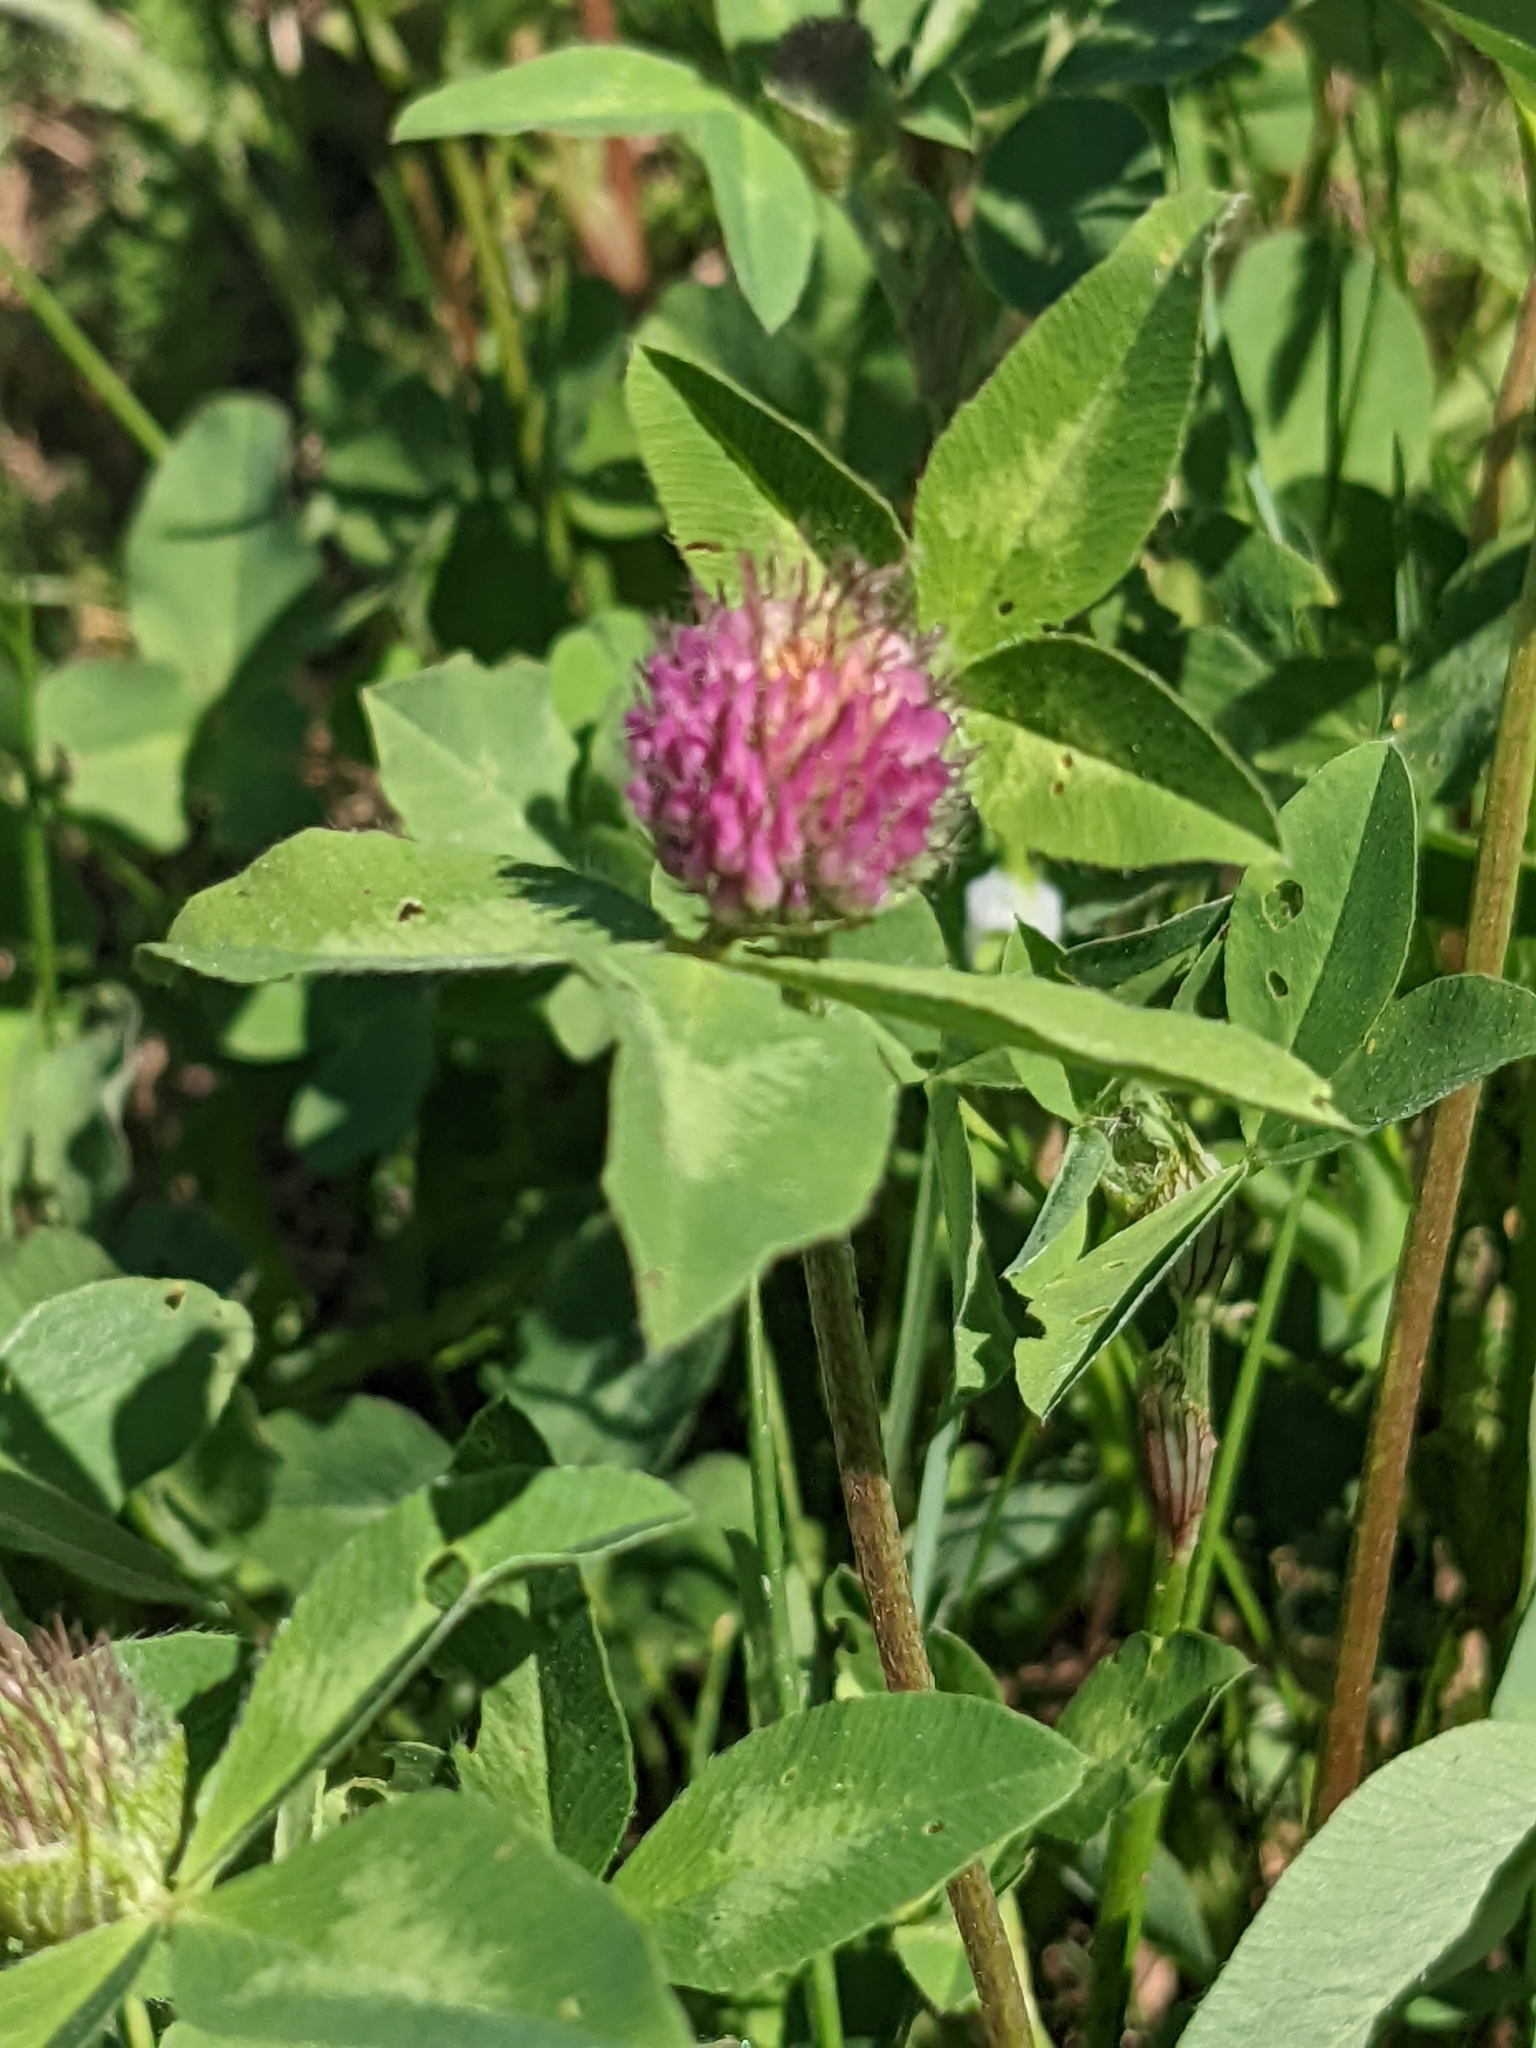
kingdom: Plantae
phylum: Tracheophyta
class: Magnoliopsida
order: Fabales
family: Fabaceae
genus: Trifolium
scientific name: Trifolium pratense
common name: Red clover
